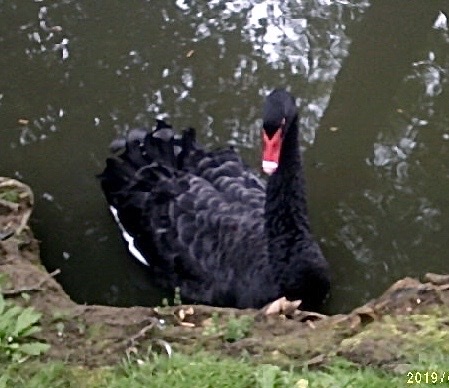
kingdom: Animalia
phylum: Chordata
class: Aves
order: Anseriformes
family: Anatidae
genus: Cygnus
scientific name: Cygnus atratus
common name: Black swan
